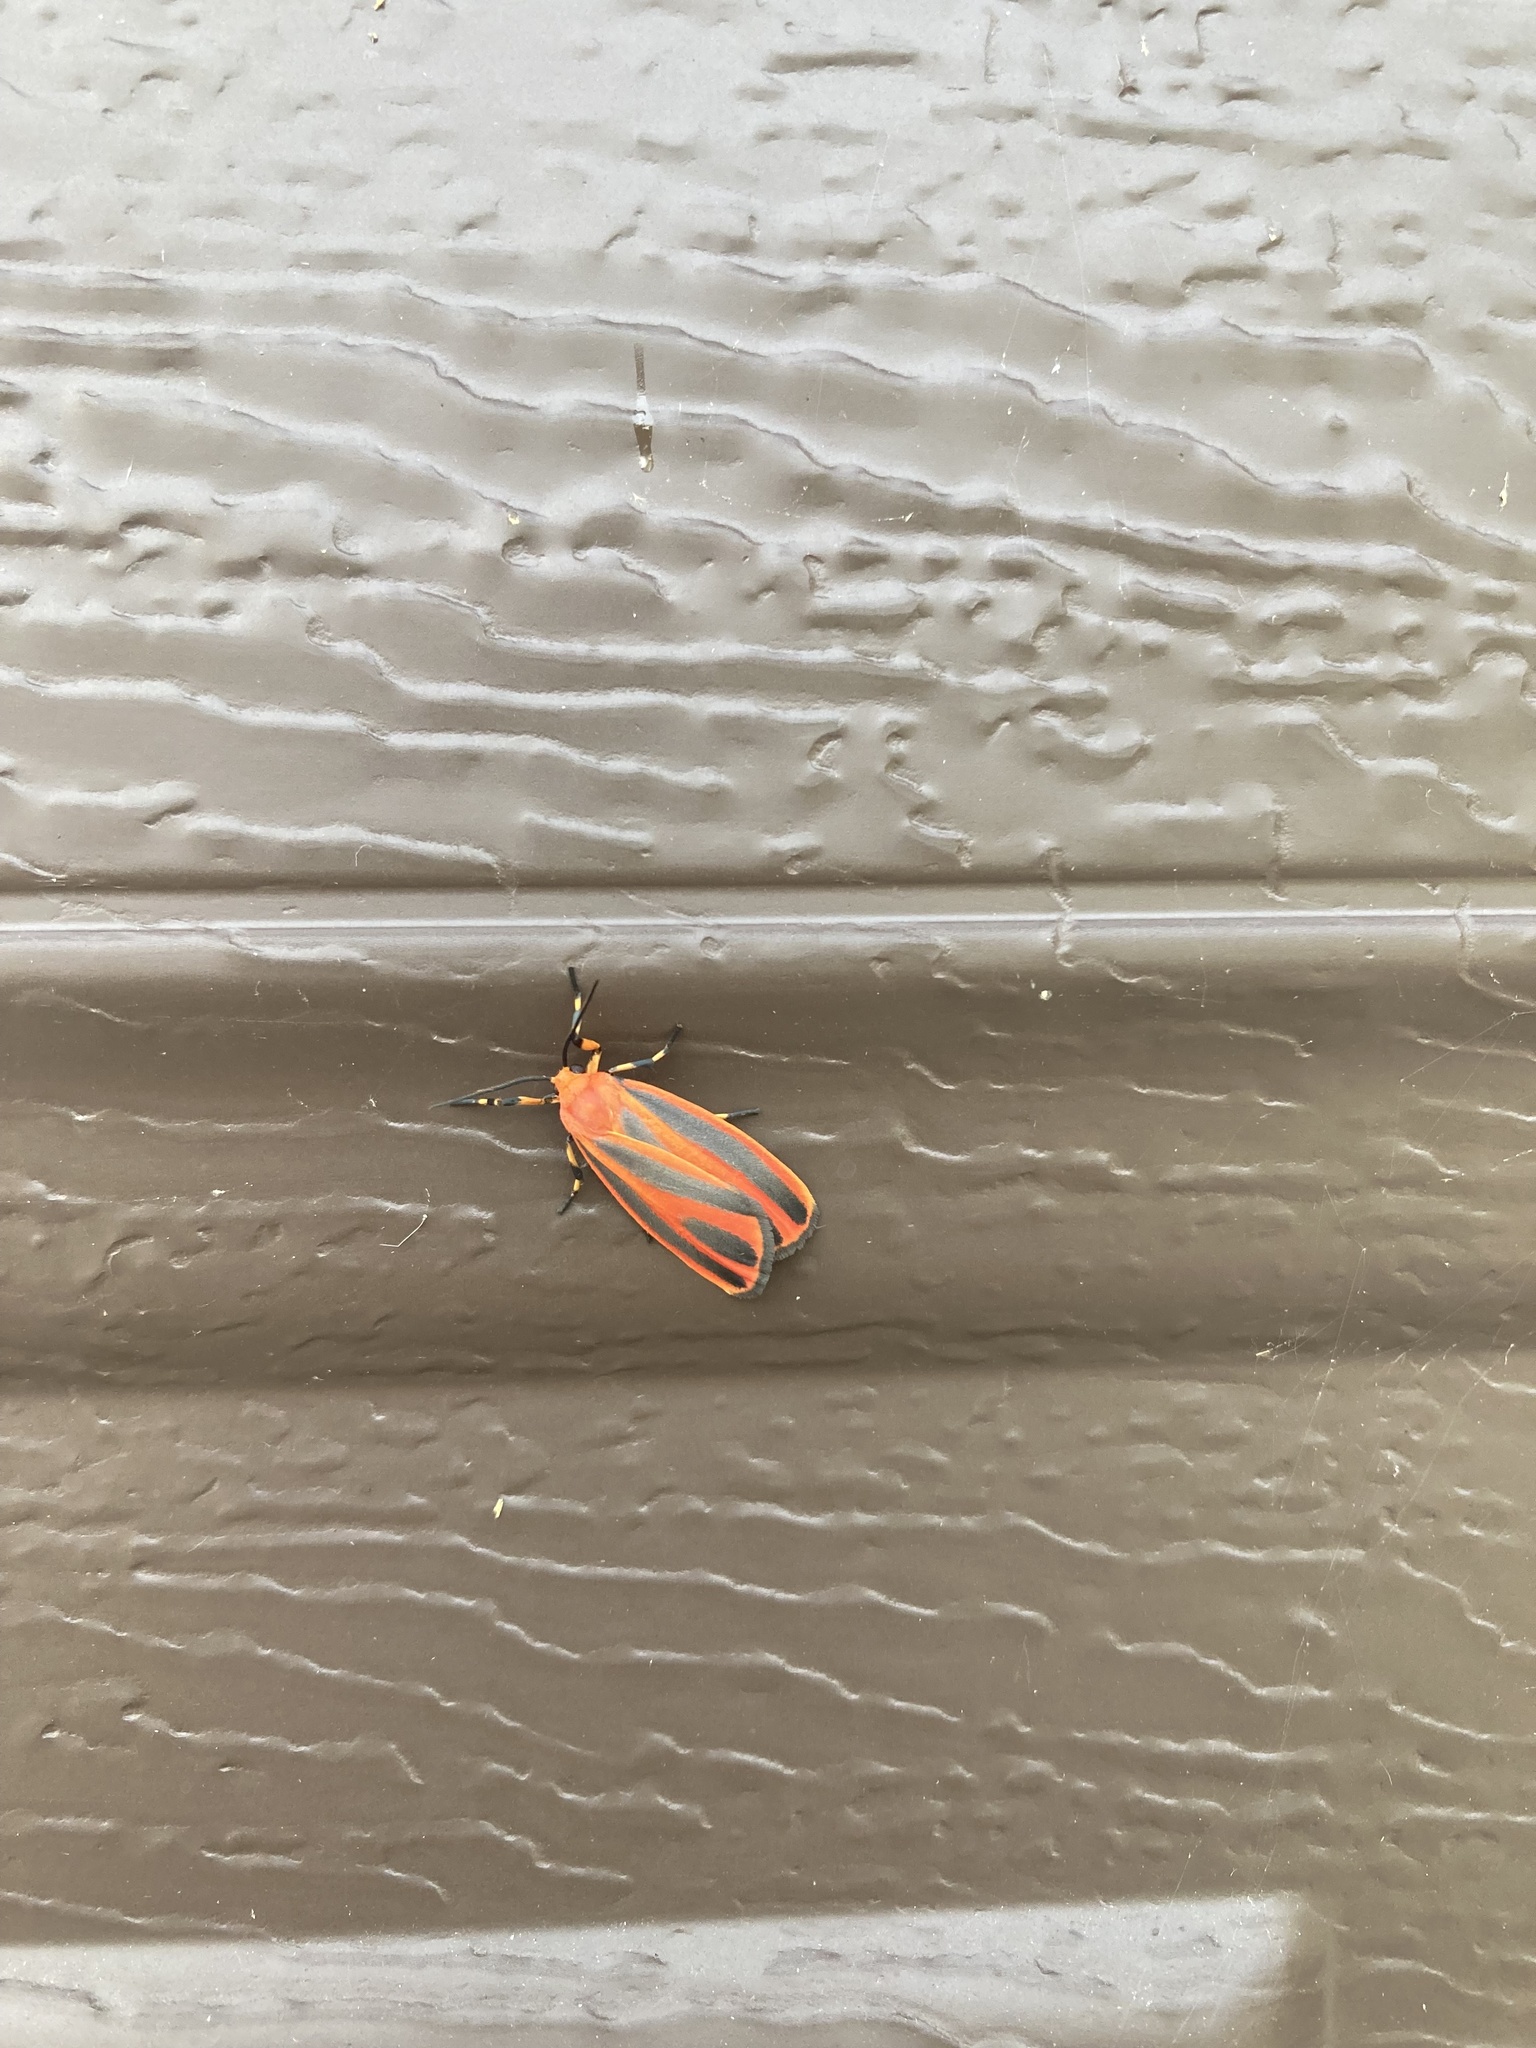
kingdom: Animalia
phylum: Arthropoda
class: Insecta
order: Lepidoptera
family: Erebidae
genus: Hypoprepia
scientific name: Hypoprepia miniata
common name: Scarlet-winged lichen moth
